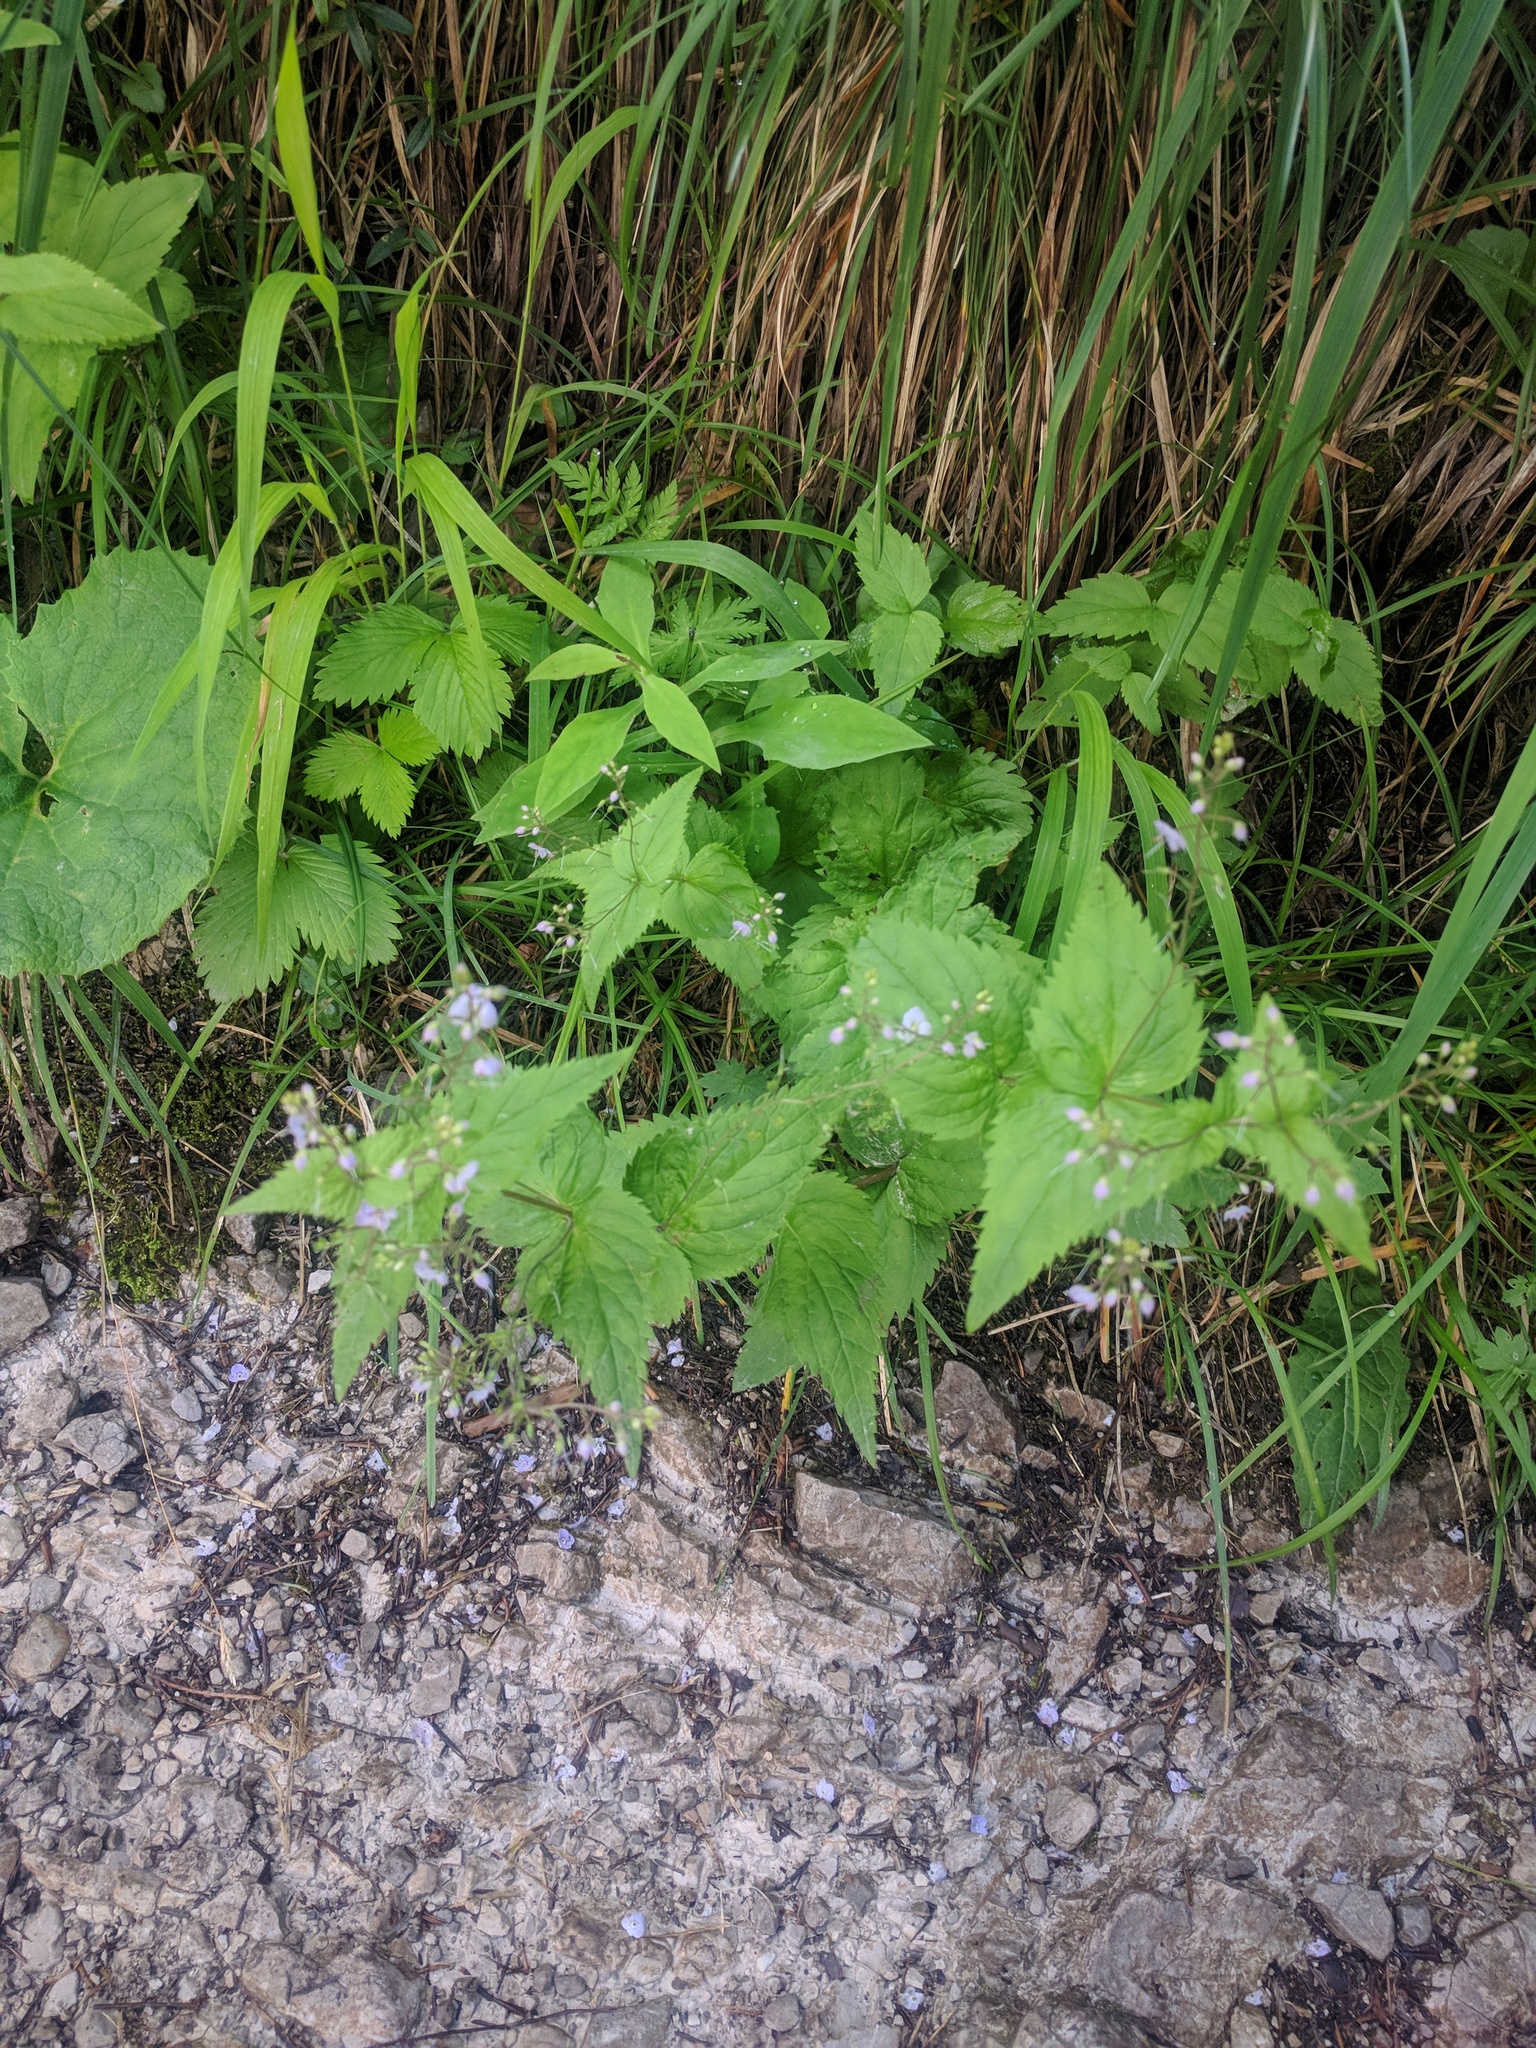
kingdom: Plantae
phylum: Tracheophyta
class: Magnoliopsida
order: Lamiales
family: Plantaginaceae
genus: Veronica
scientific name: Veronica urticifolia
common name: Nettle-leaf speedwell
